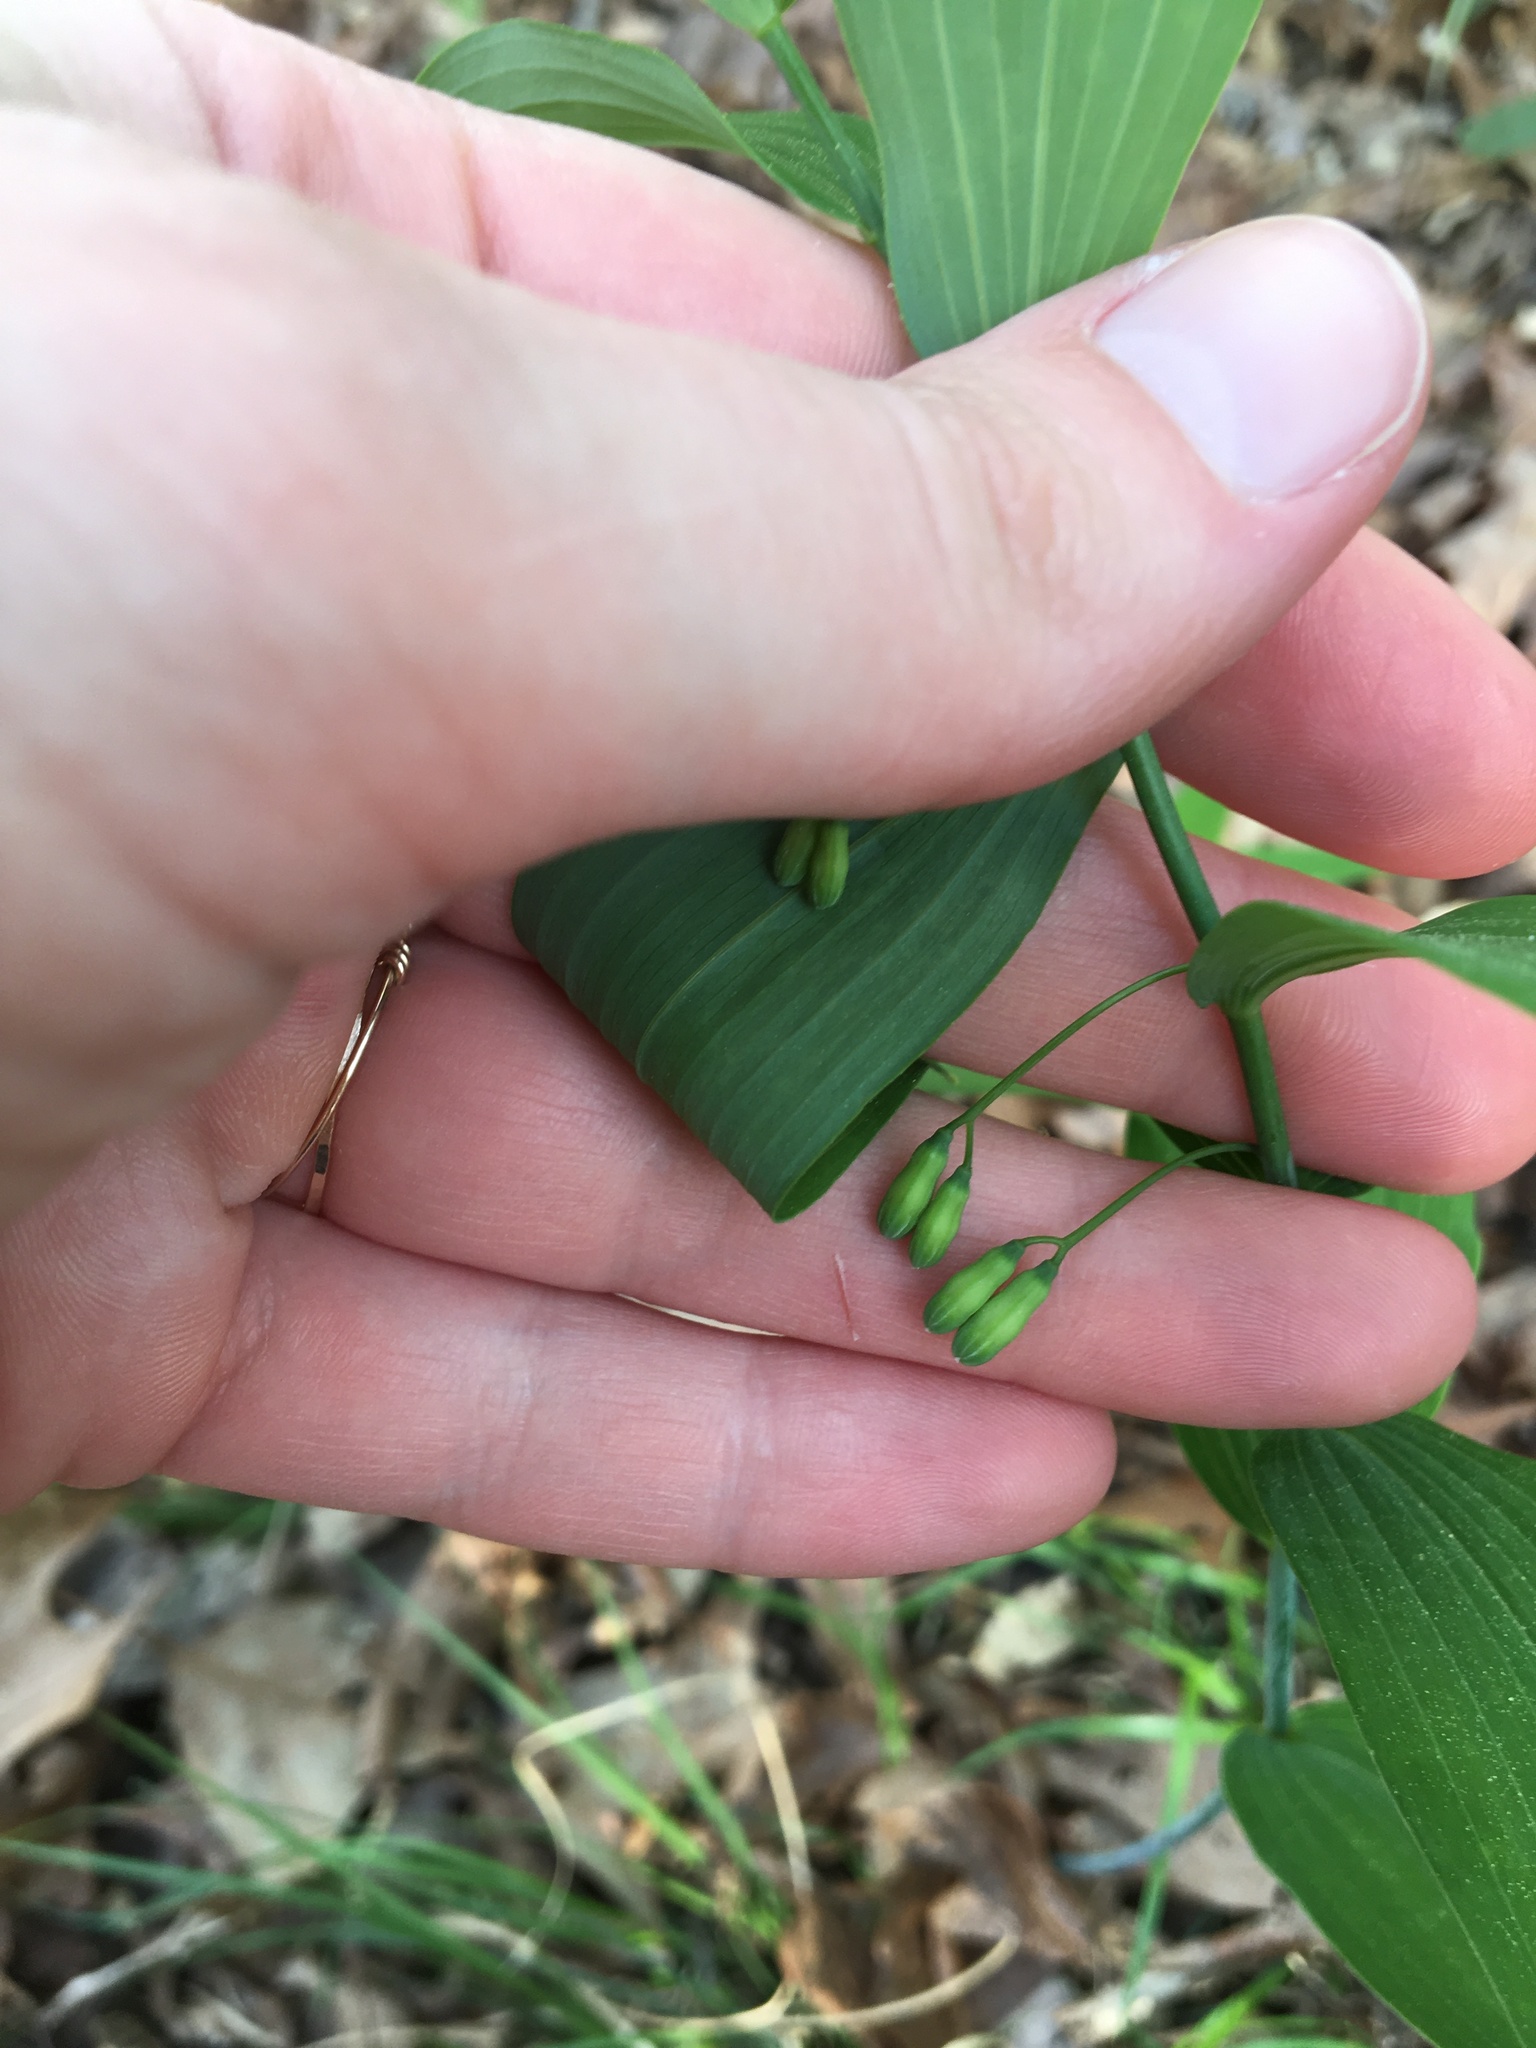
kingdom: Plantae
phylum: Tracheophyta
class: Liliopsida
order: Asparagales
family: Asparagaceae
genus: Polygonatum
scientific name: Polygonatum biflorum
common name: American solomon's-seal
